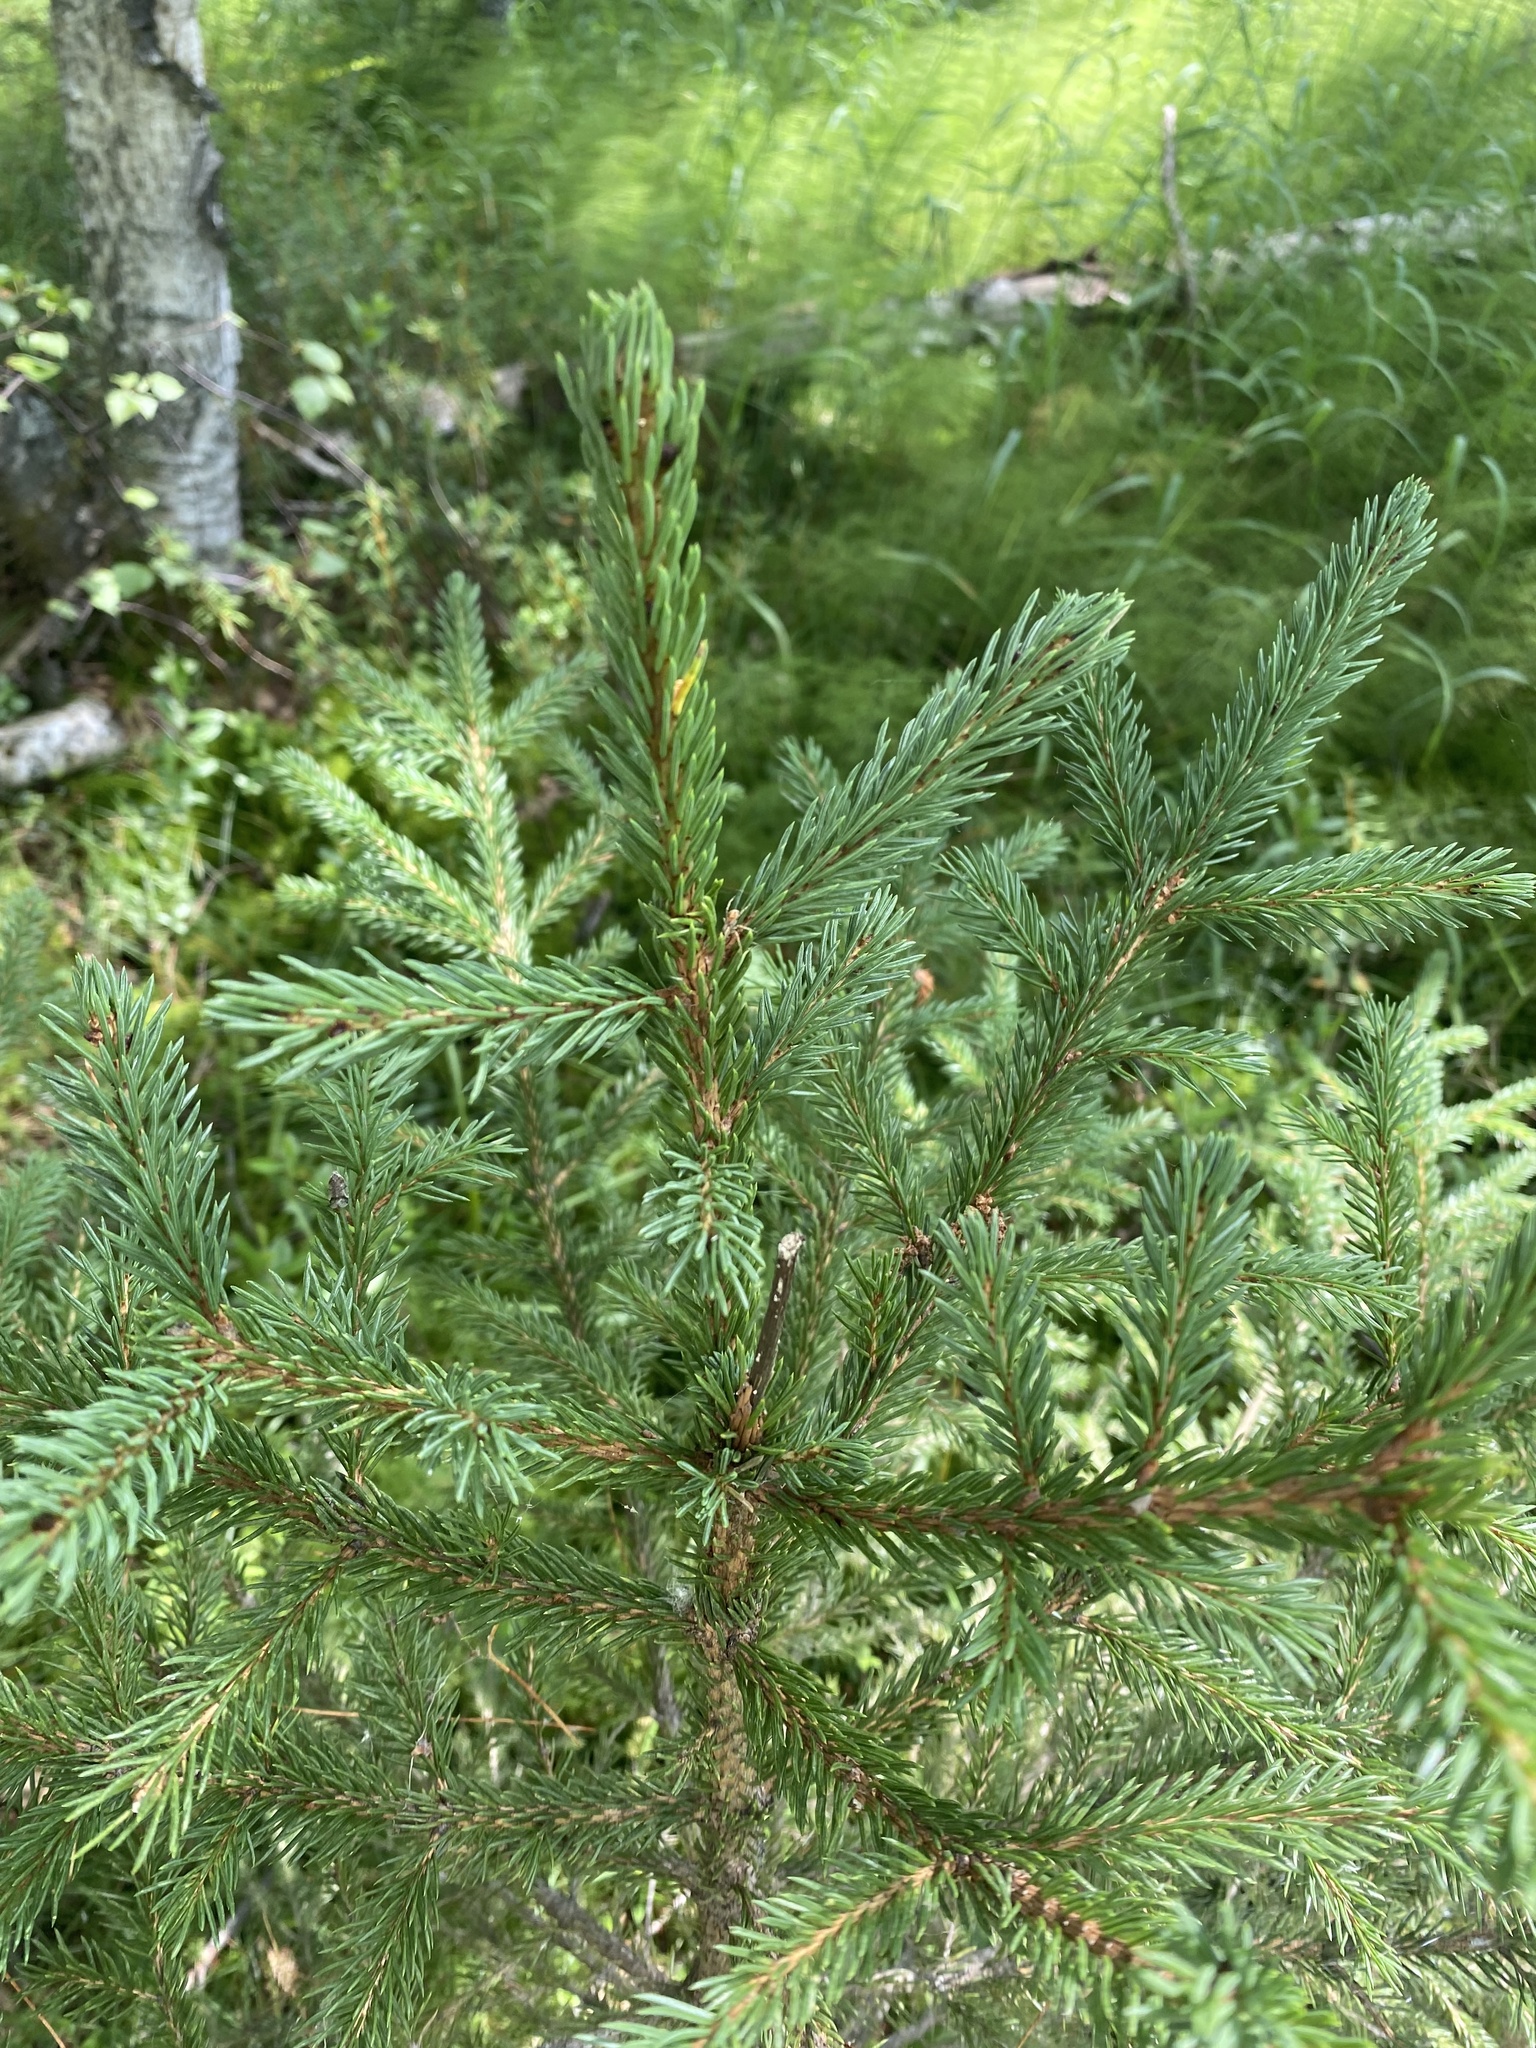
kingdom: Plantae
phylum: Tracheophyta
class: Pinopsida
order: Pinales
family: Pinaceae
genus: Picea
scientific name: Picea obovata
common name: Siberian spruce
